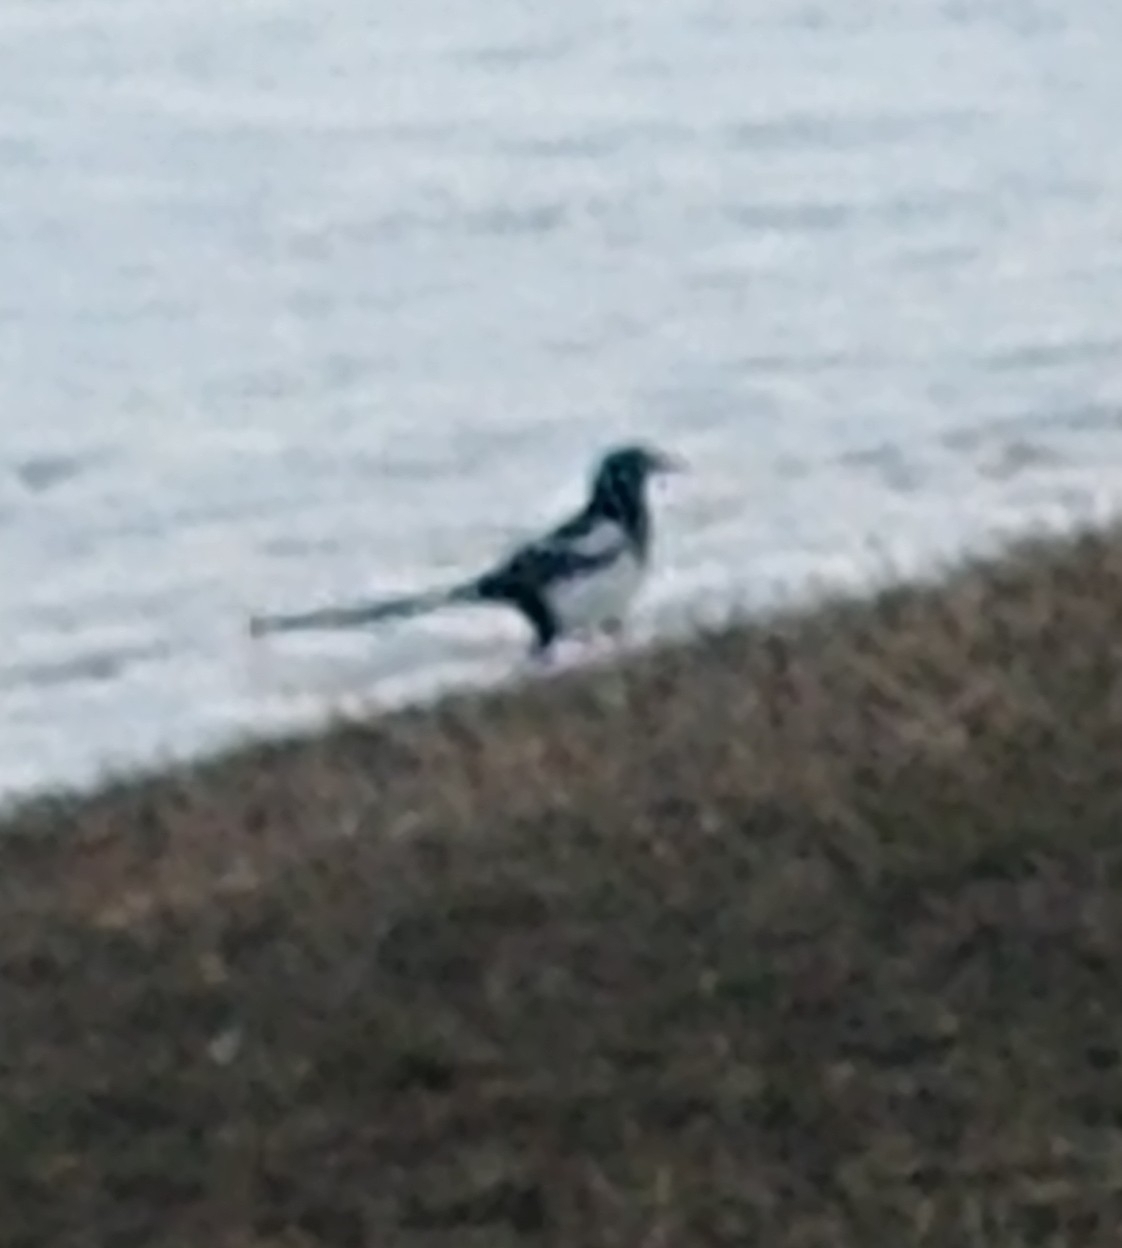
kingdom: Animalia
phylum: Chordata
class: Aves
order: Passeriformes
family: Corvidae
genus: Pica
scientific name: Pica hudsonia
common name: Black-billed magpie
